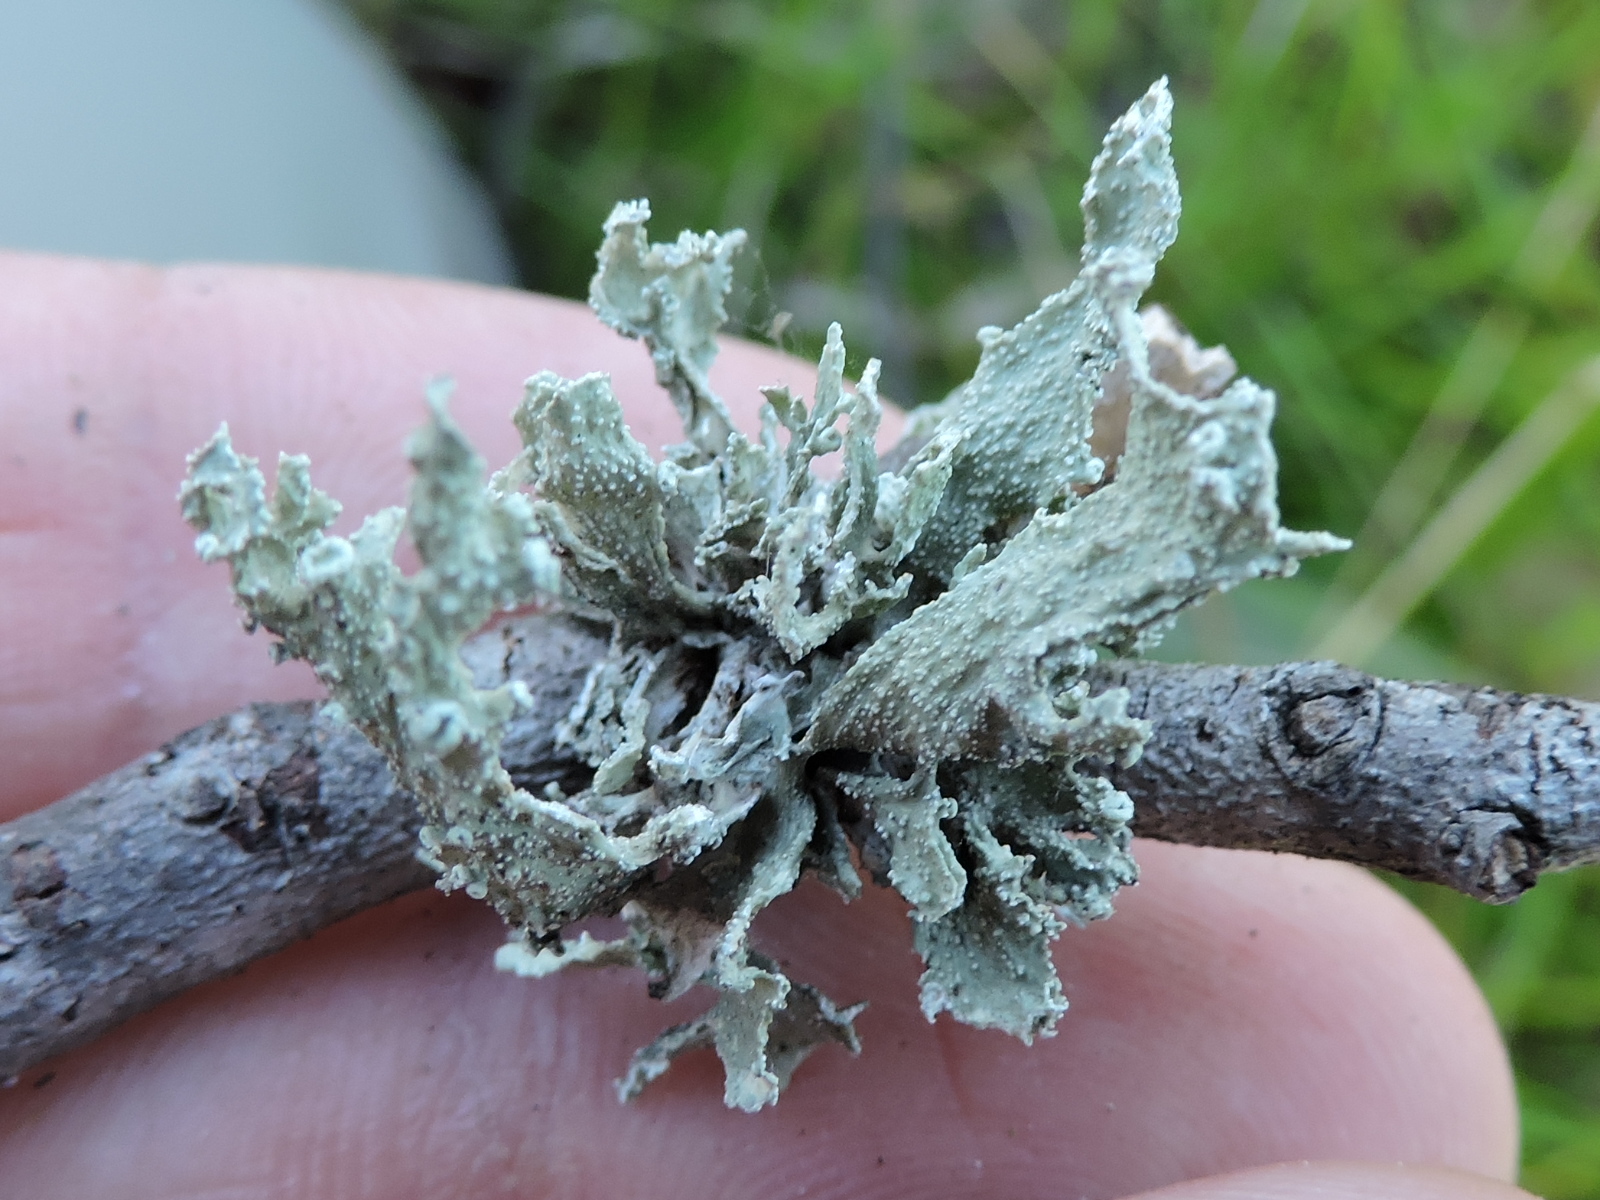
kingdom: Fungi
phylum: Ascomycota
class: Lecanoromycetes
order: Lecanorales
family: Ramalinaceae
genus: Ramalina
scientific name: Ramalina celastri
